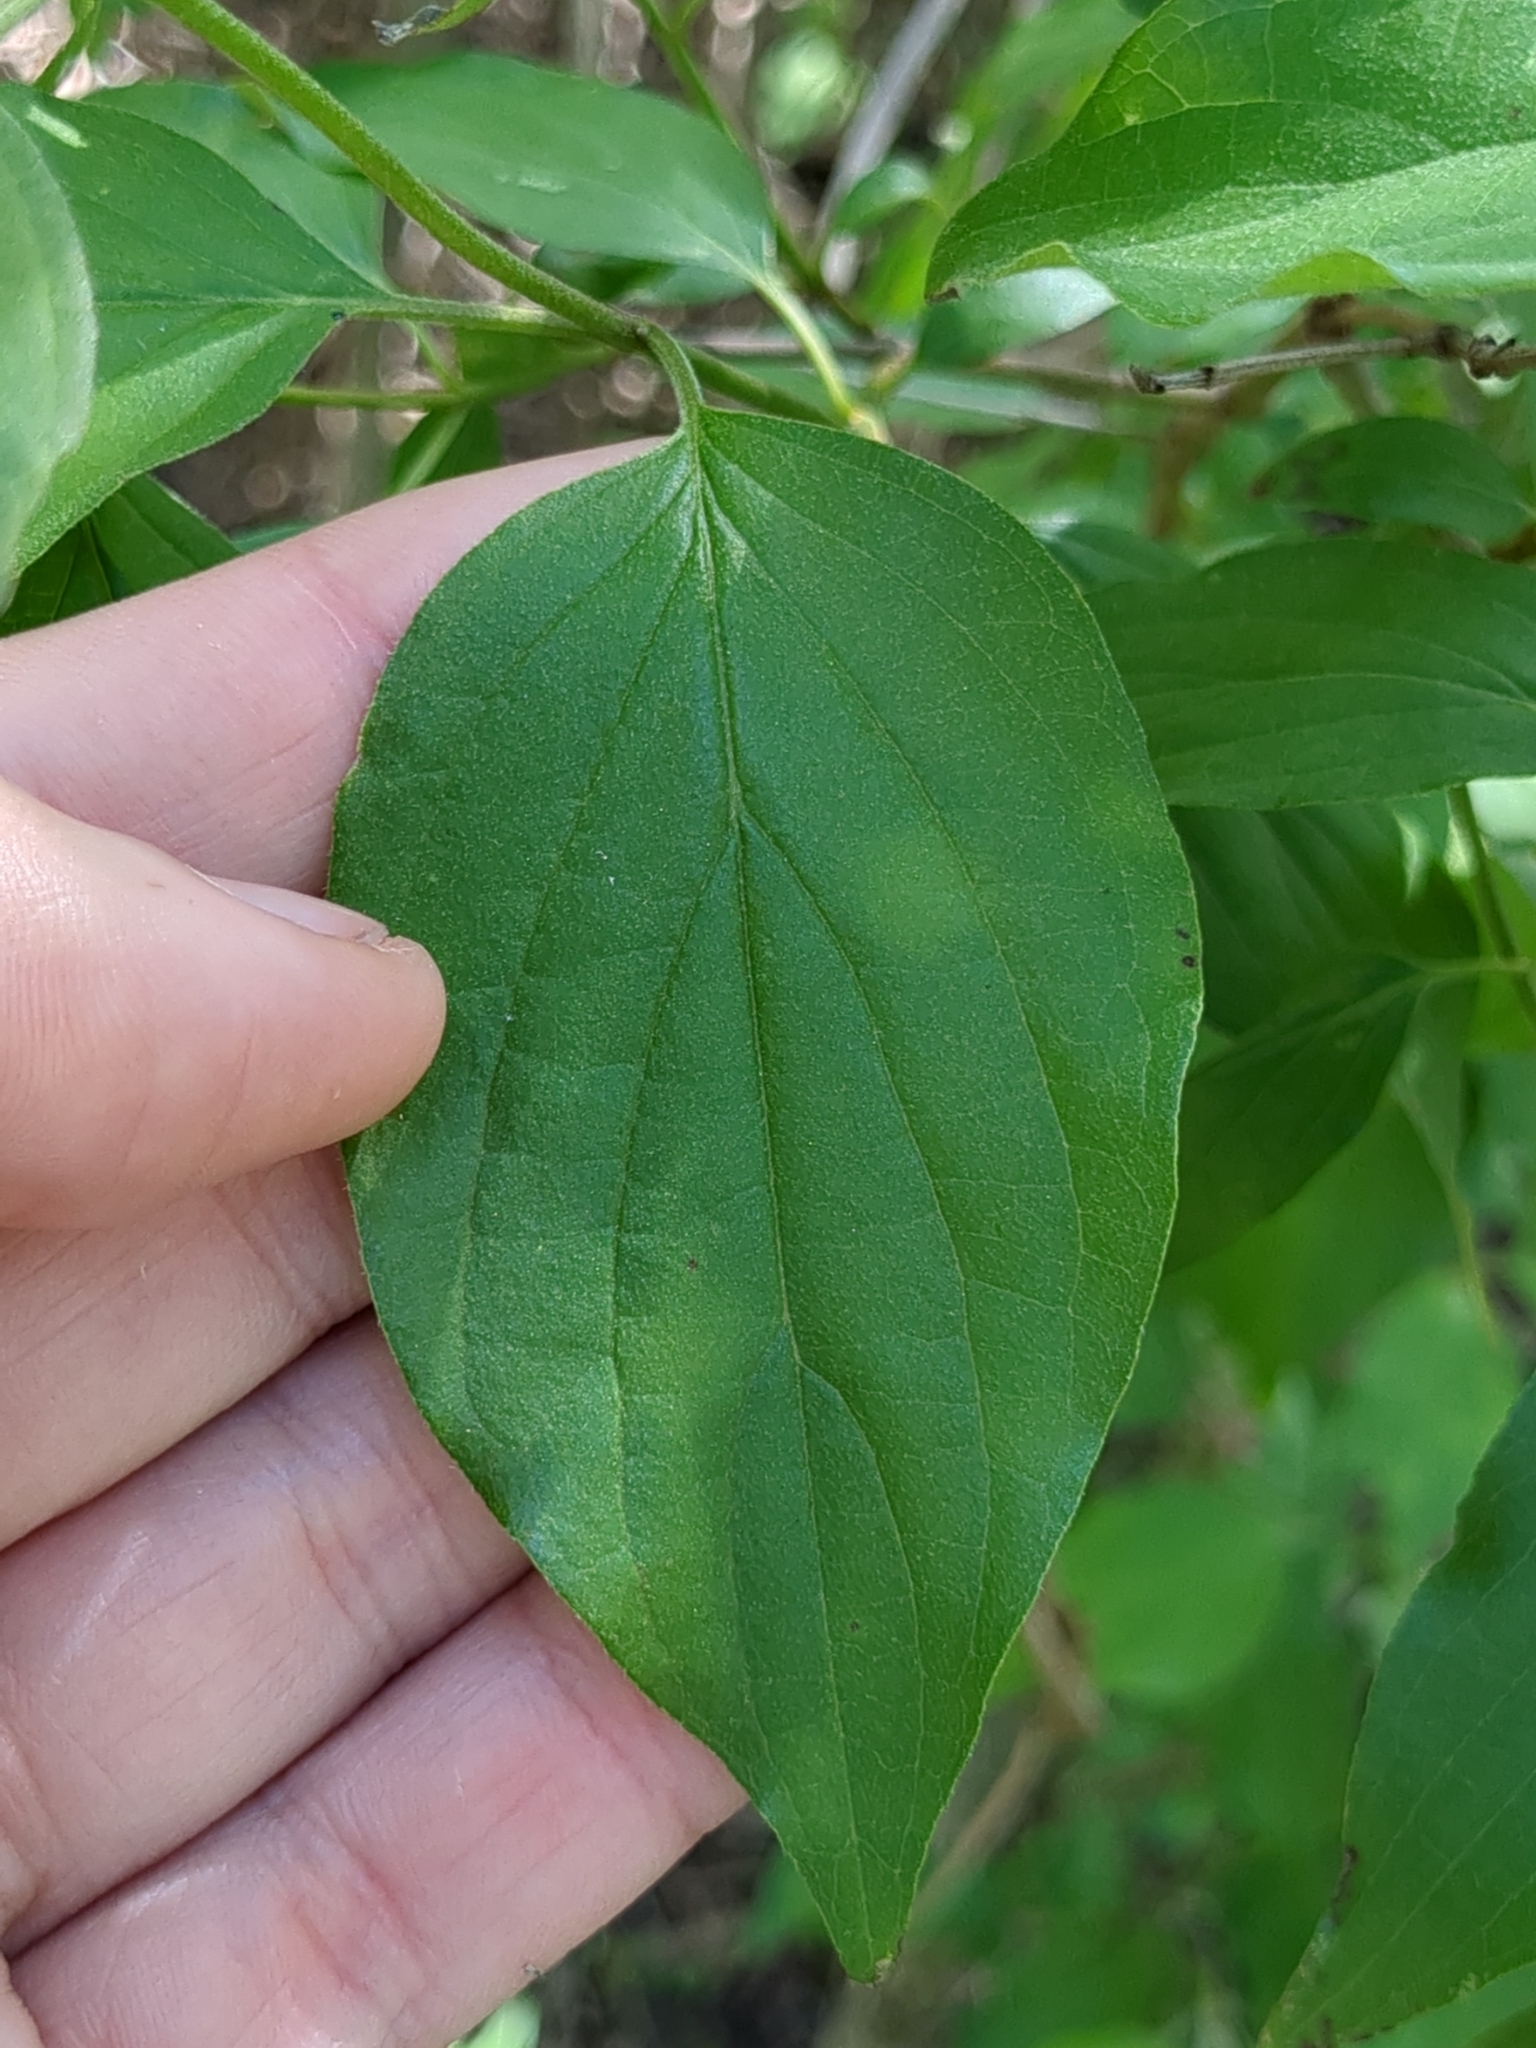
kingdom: Plantae
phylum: Tracheophyta
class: Magnoliopsida
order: Cornales
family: Cornaceae
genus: Cornus
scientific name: Cornus drummondii
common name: Rough-leaf dogwood
